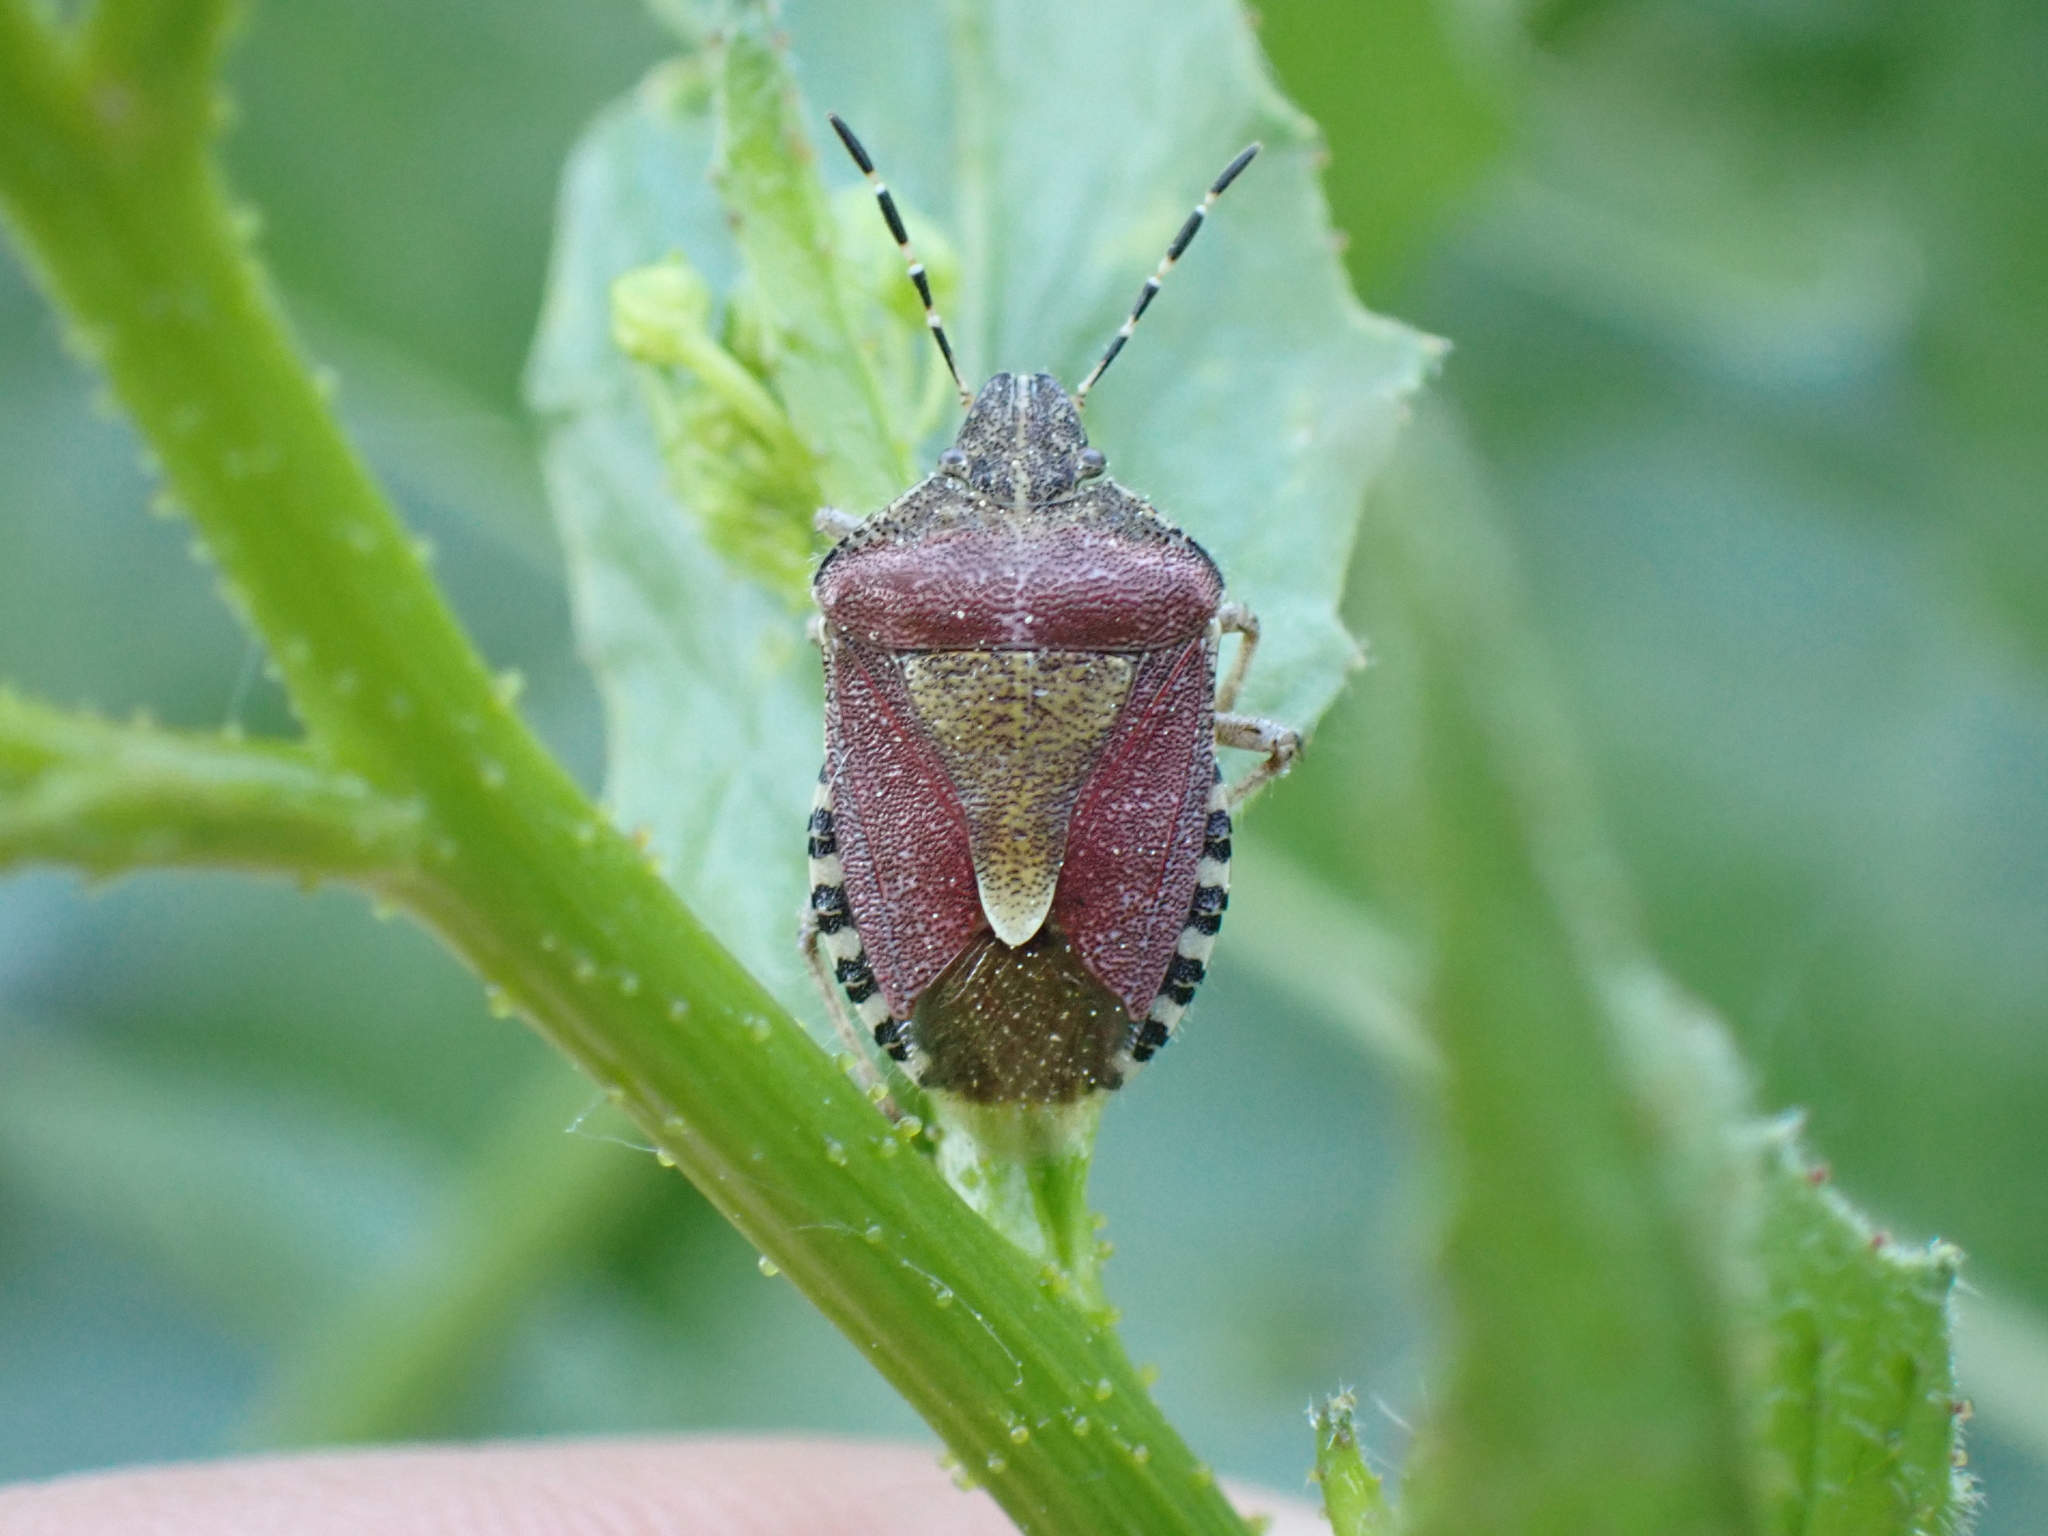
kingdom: Animalia
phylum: Arthropoda
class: Insecta
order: Hemiptera
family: Pentatomidae
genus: Dolycoris
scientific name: Dolycoris baccarum
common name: Sloe bug
